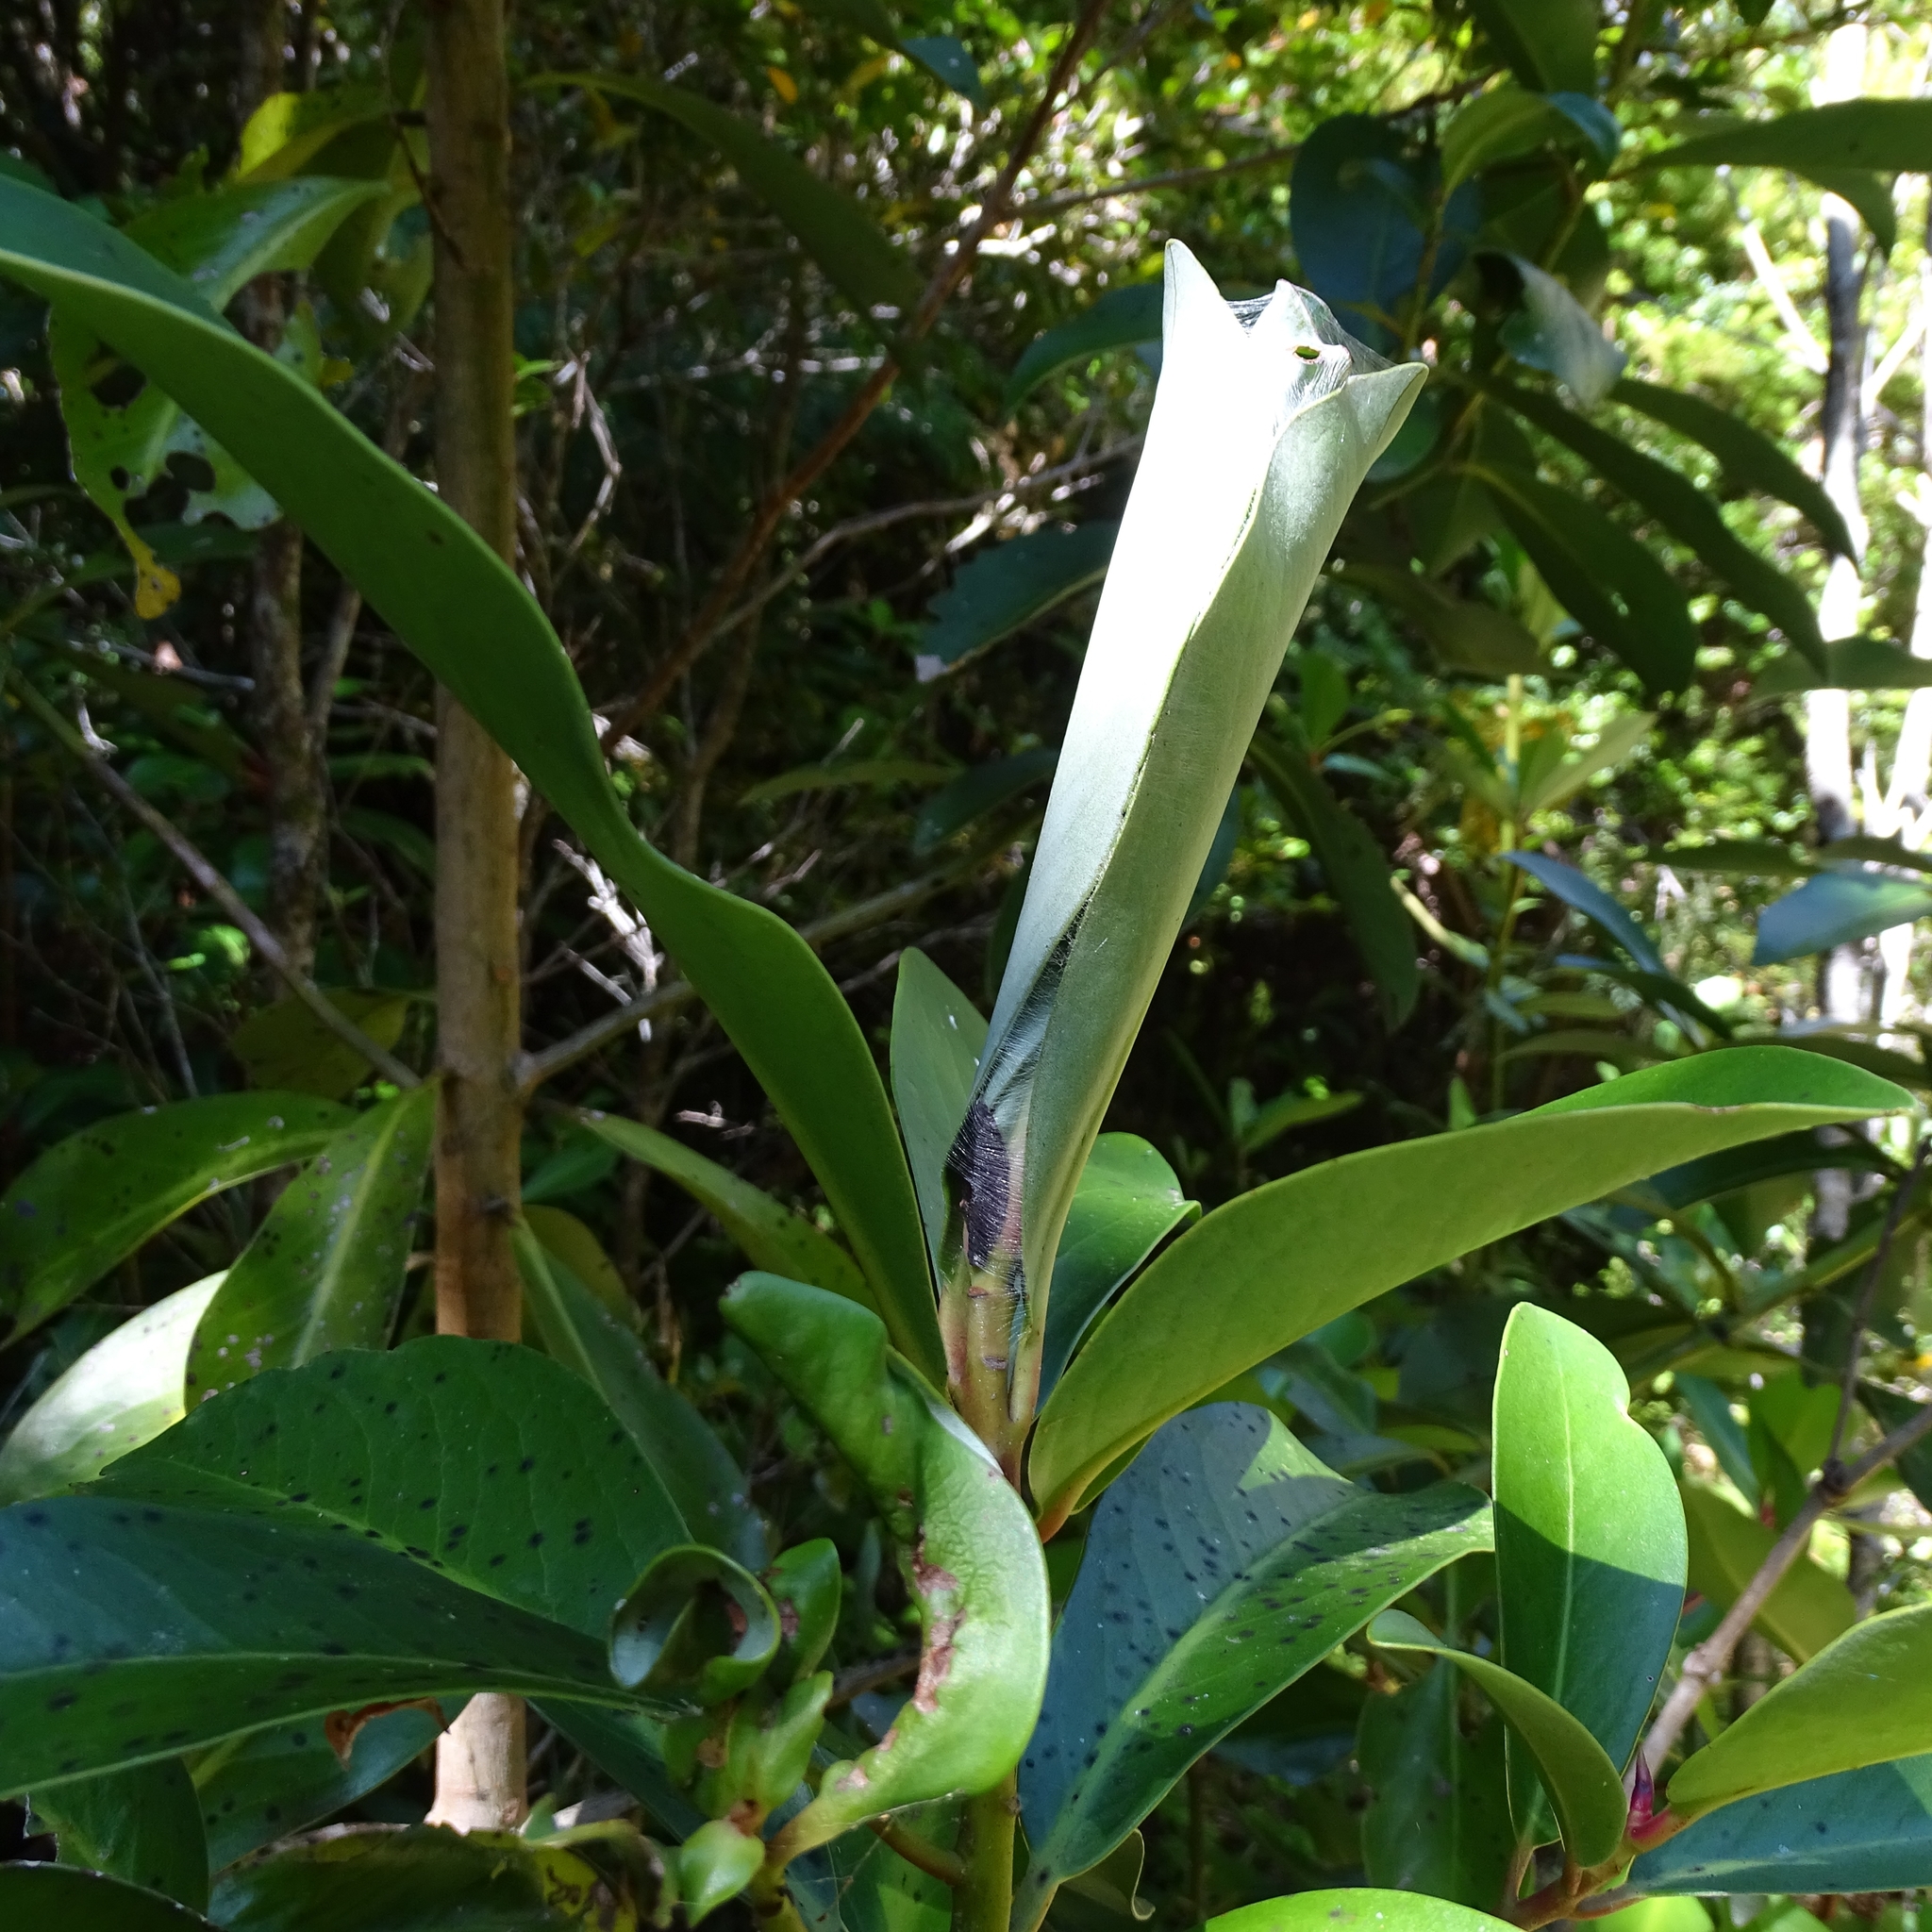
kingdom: Animalia
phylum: Arthropoda
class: Insecta
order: Lepidoptera
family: Yponomeutidae
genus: Ithutomus
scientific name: Ithutomus formosus
